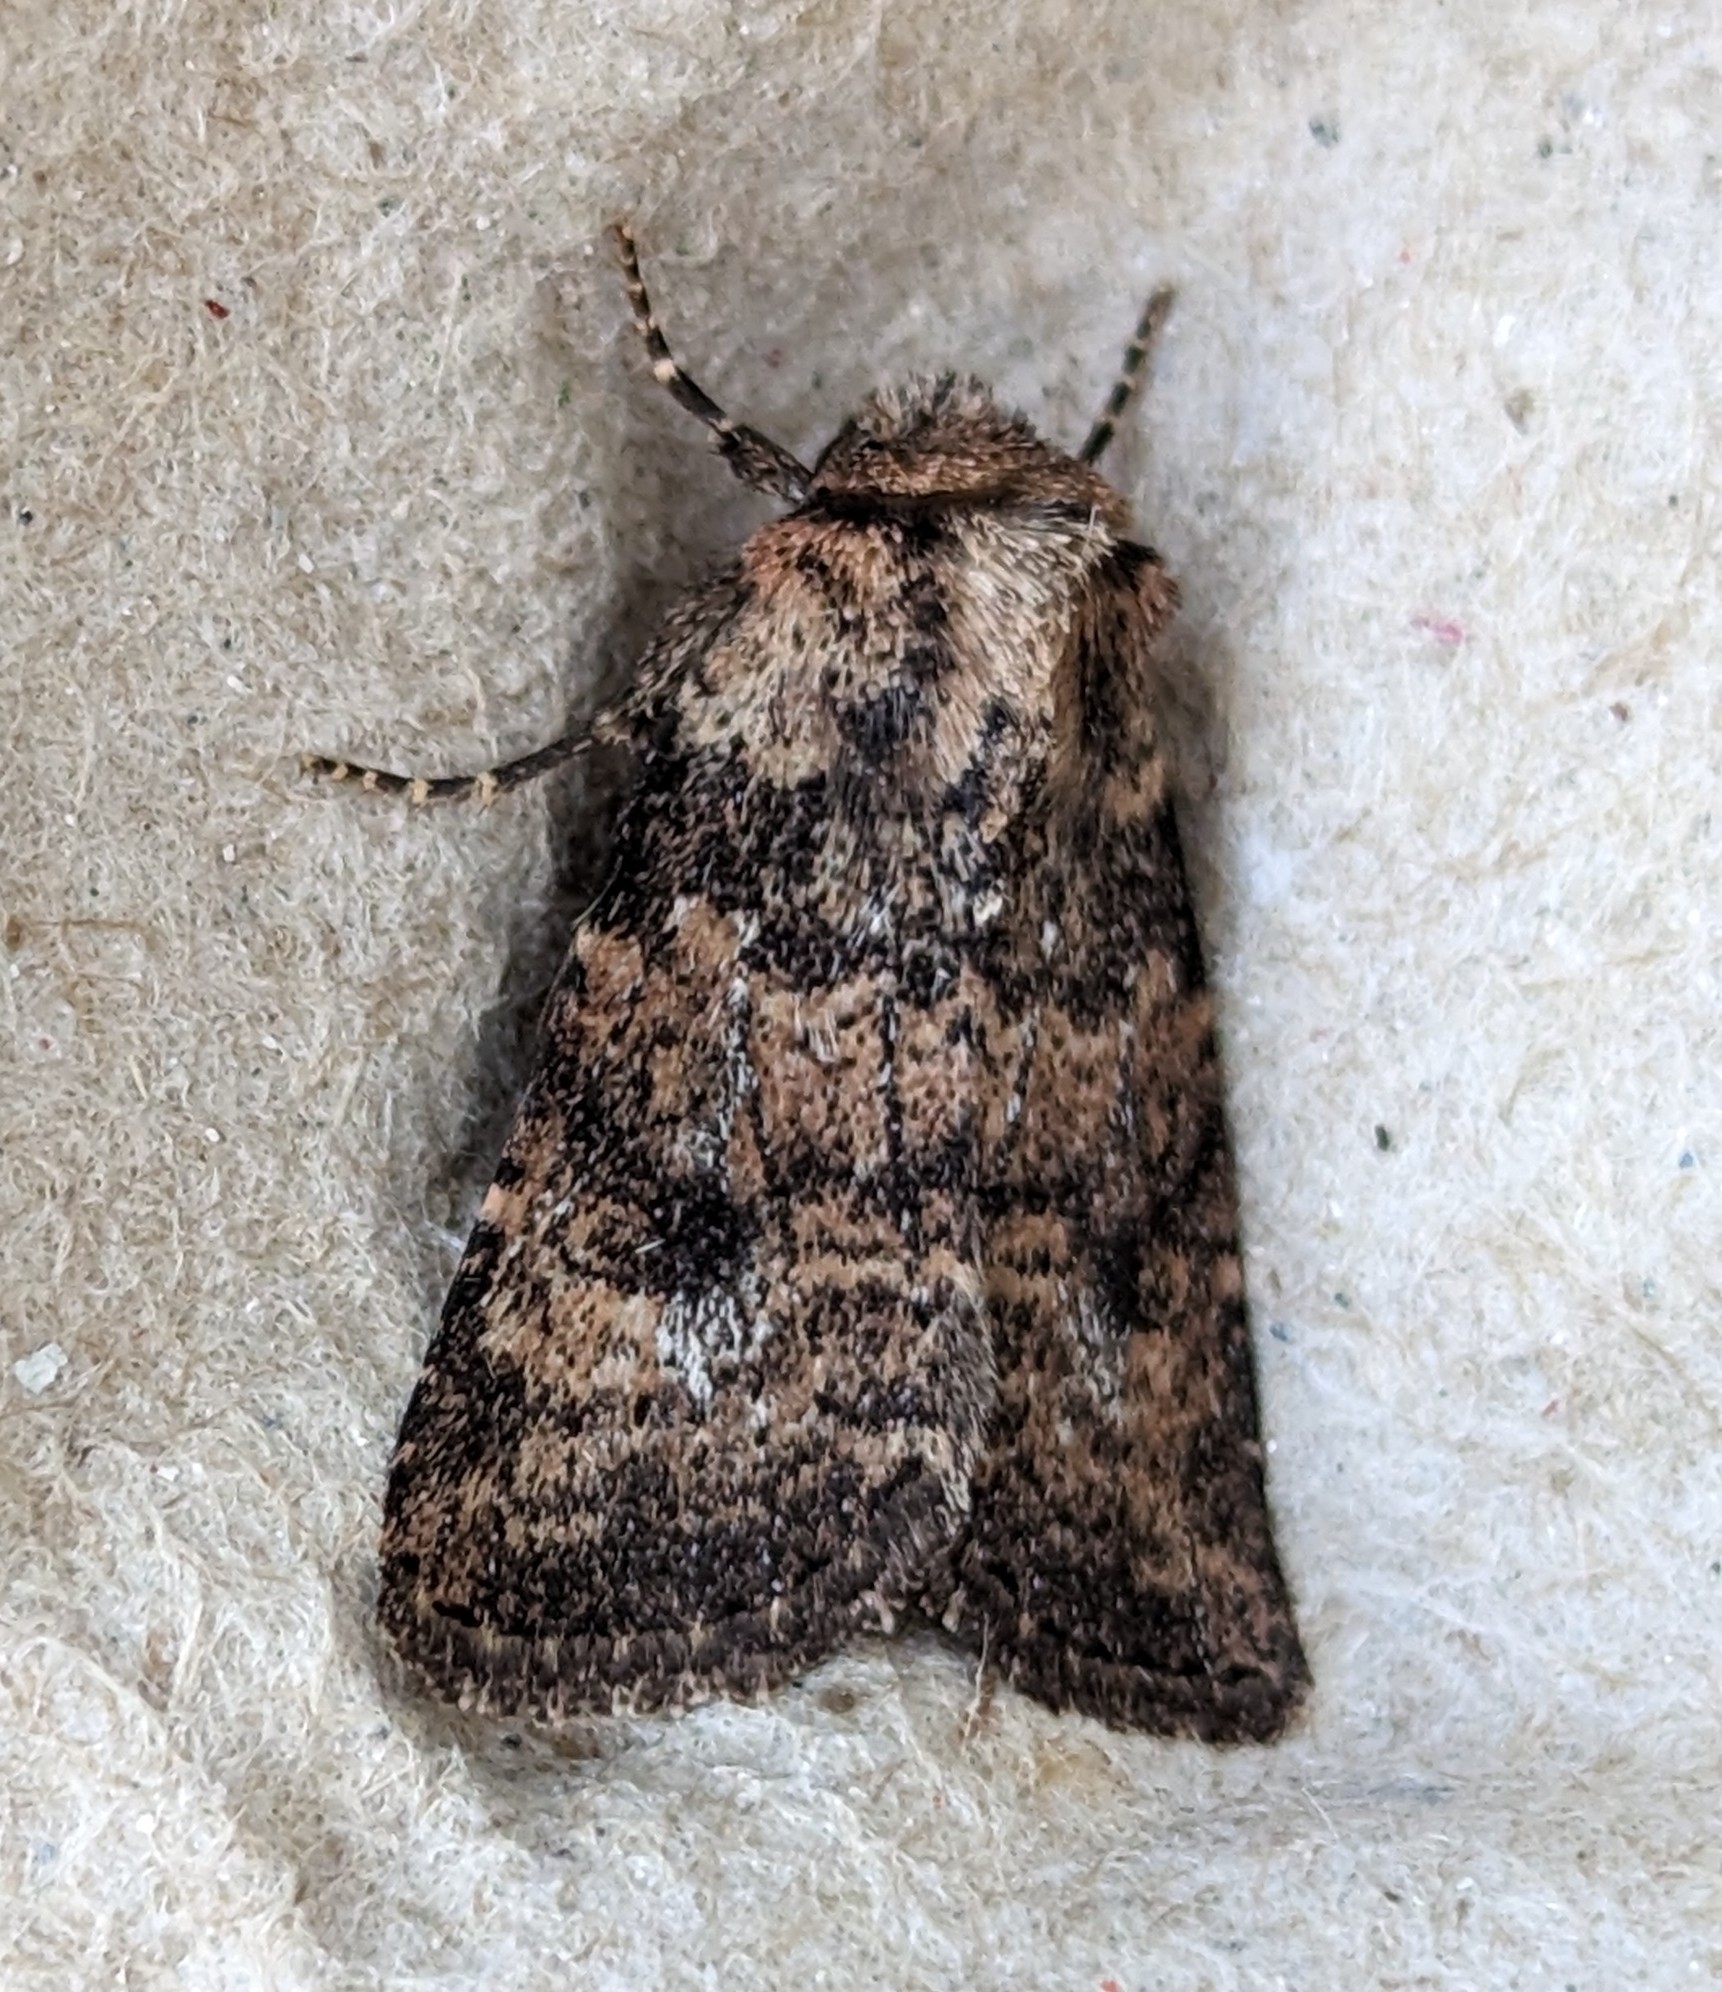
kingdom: Animalia
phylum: Arthropoda
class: Insecta
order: Lepidoptera
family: Noctuidae
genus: Homorthodes
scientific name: Homorthodes hanhami
